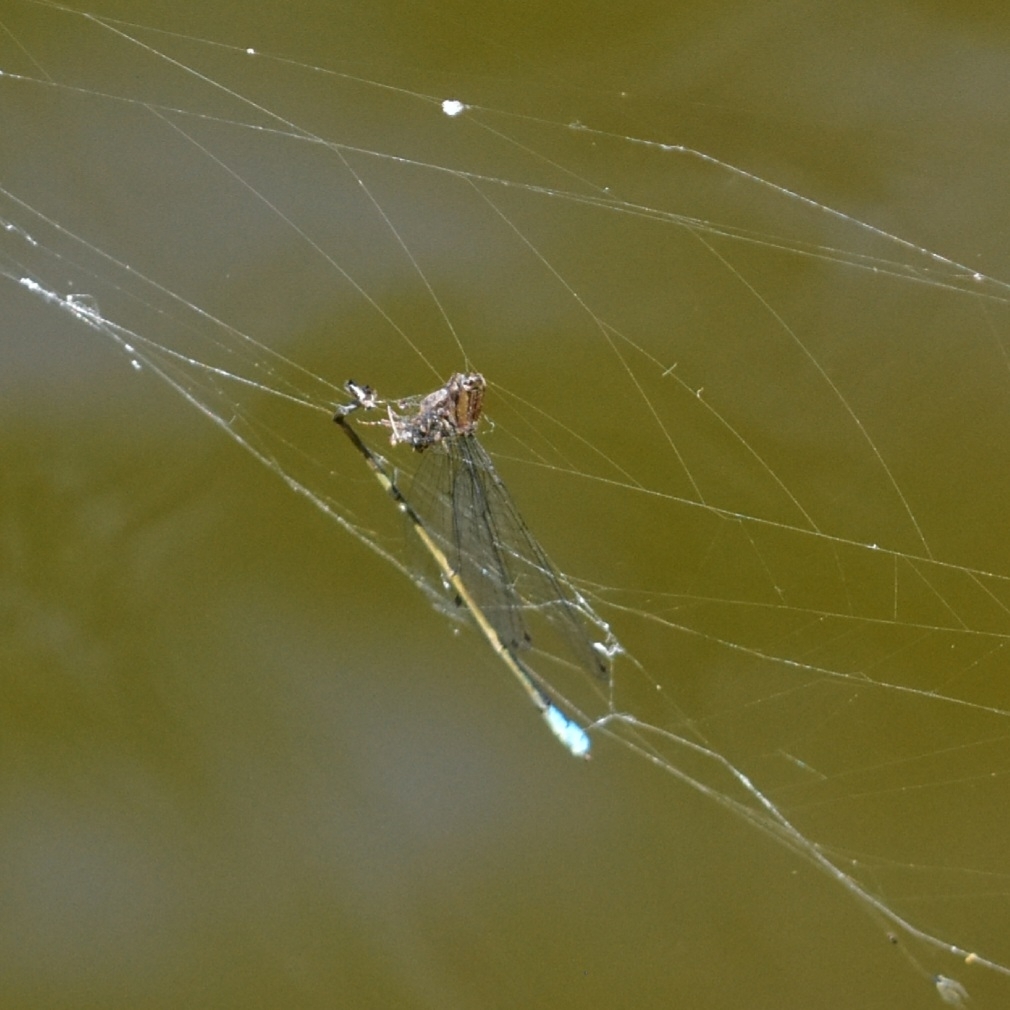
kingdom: Animalia
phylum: Arthropoda
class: Insecta
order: Odonata
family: Coenagrionidae
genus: Pseudagrion
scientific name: Pseudagrion rubriceps
